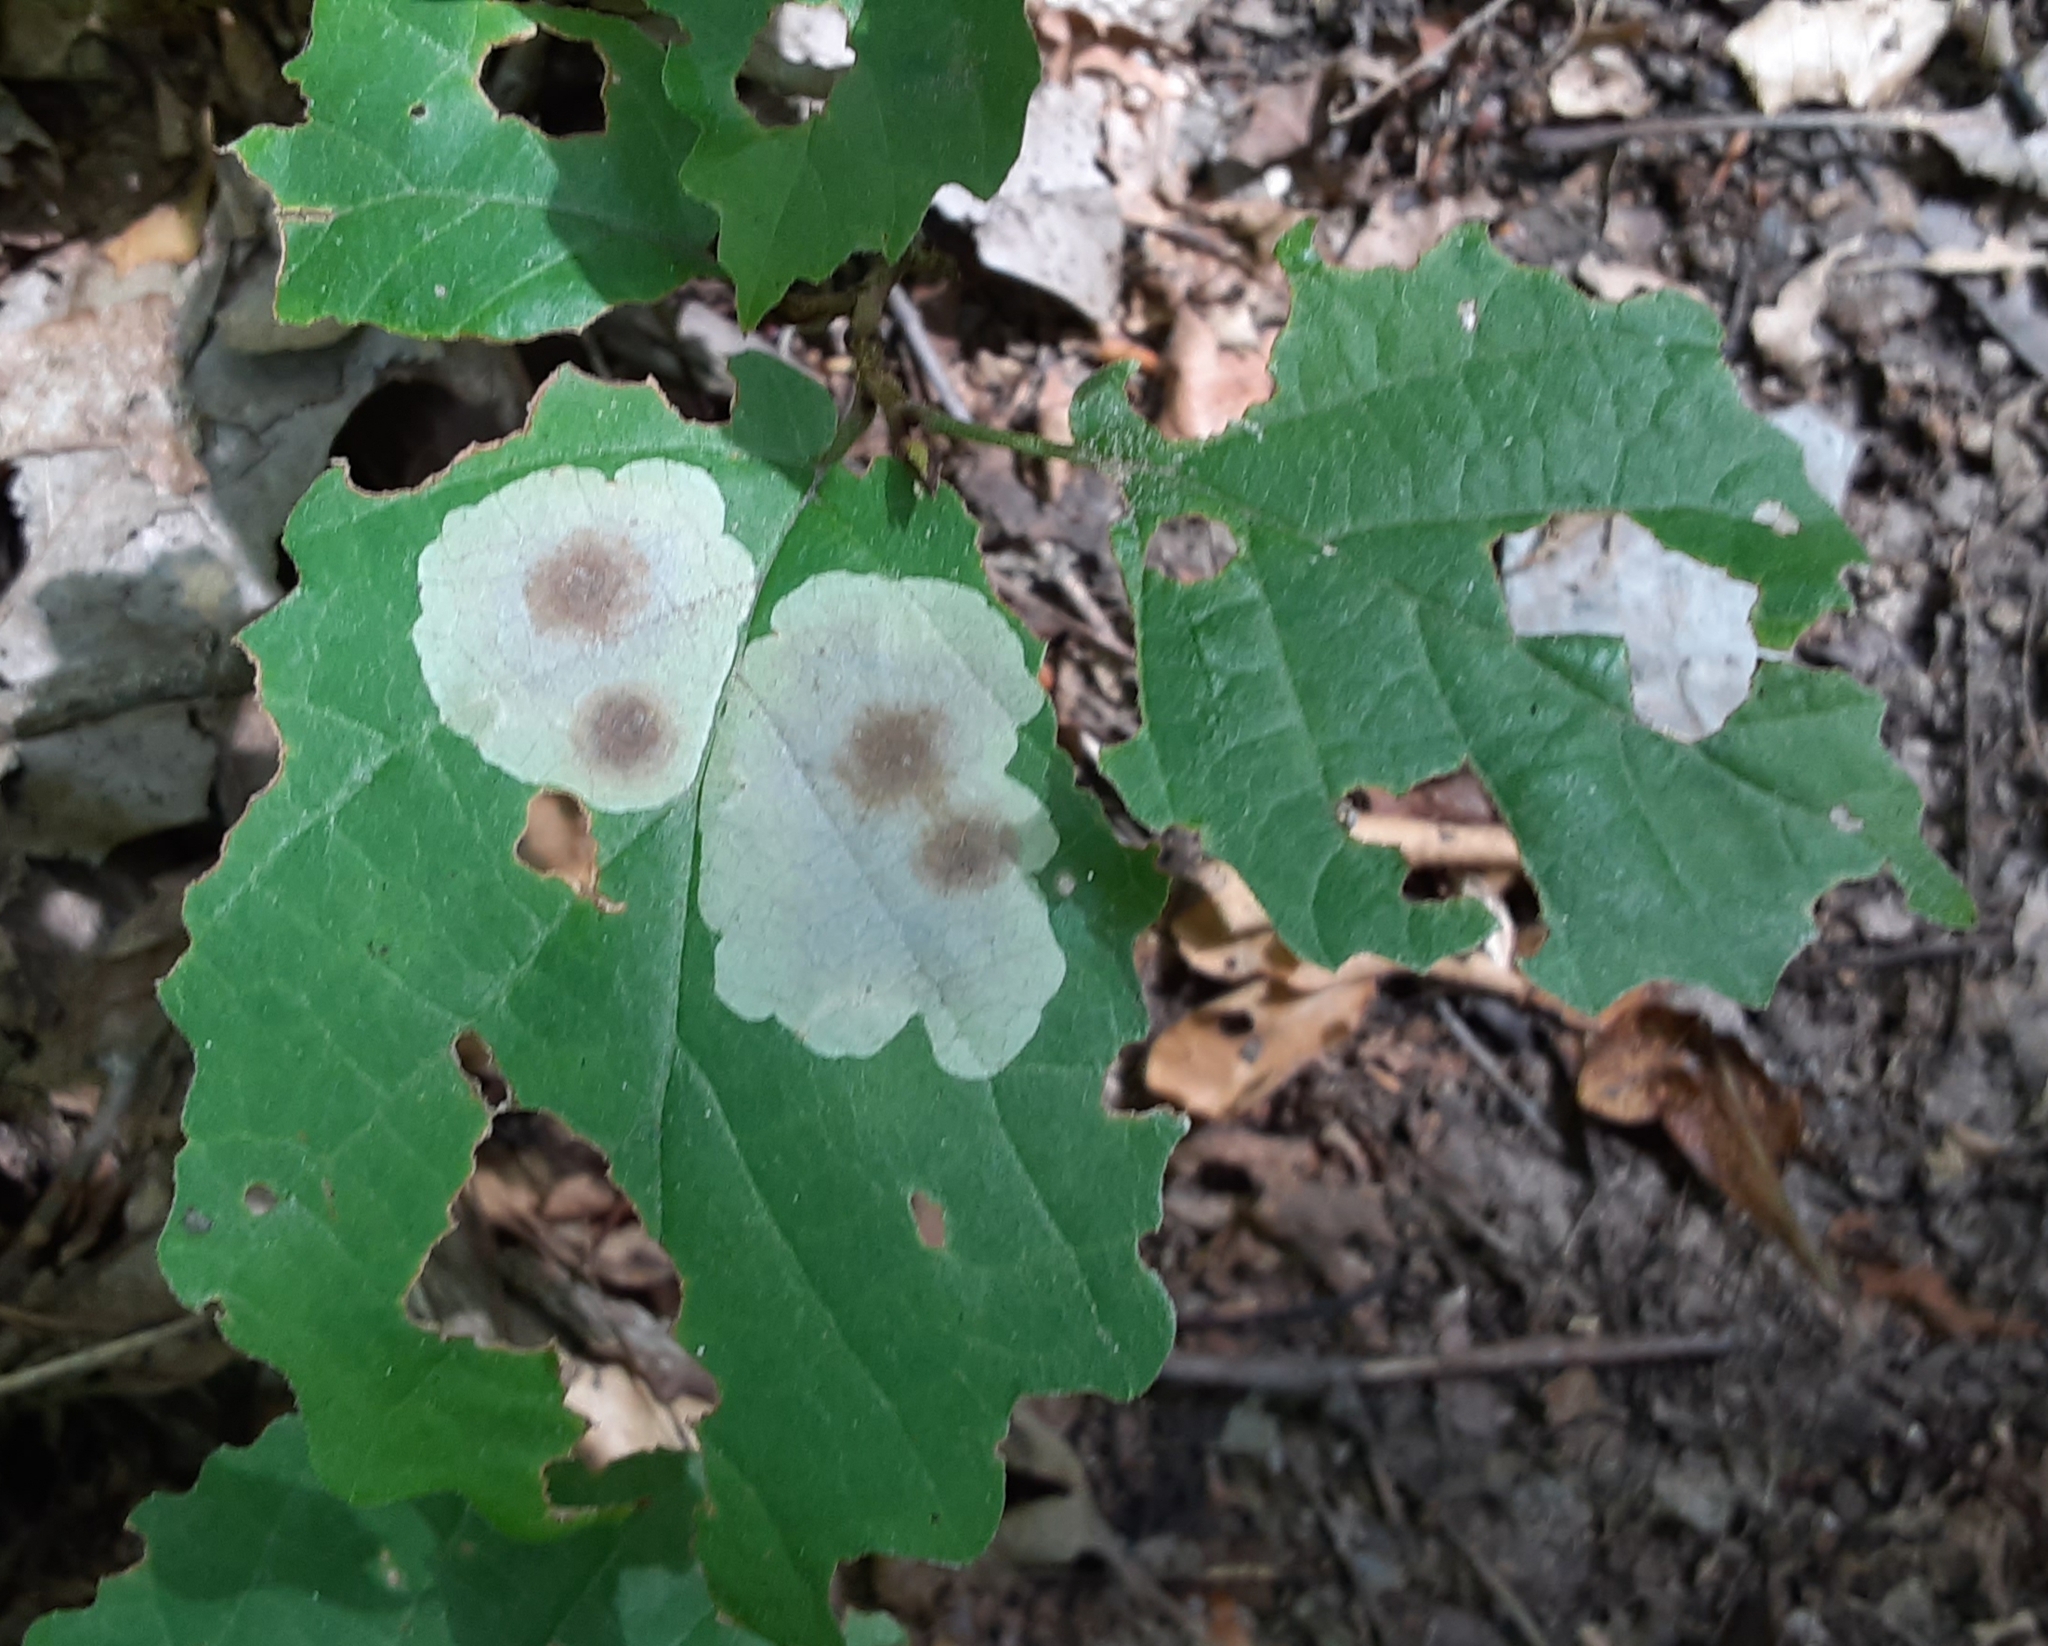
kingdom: Animalia
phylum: Arthropoda
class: Insecta
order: Lepidoptera
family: Gracillariidae
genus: Cameraria
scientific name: Cameraria hamameliella
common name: Witchhazel leafminer
